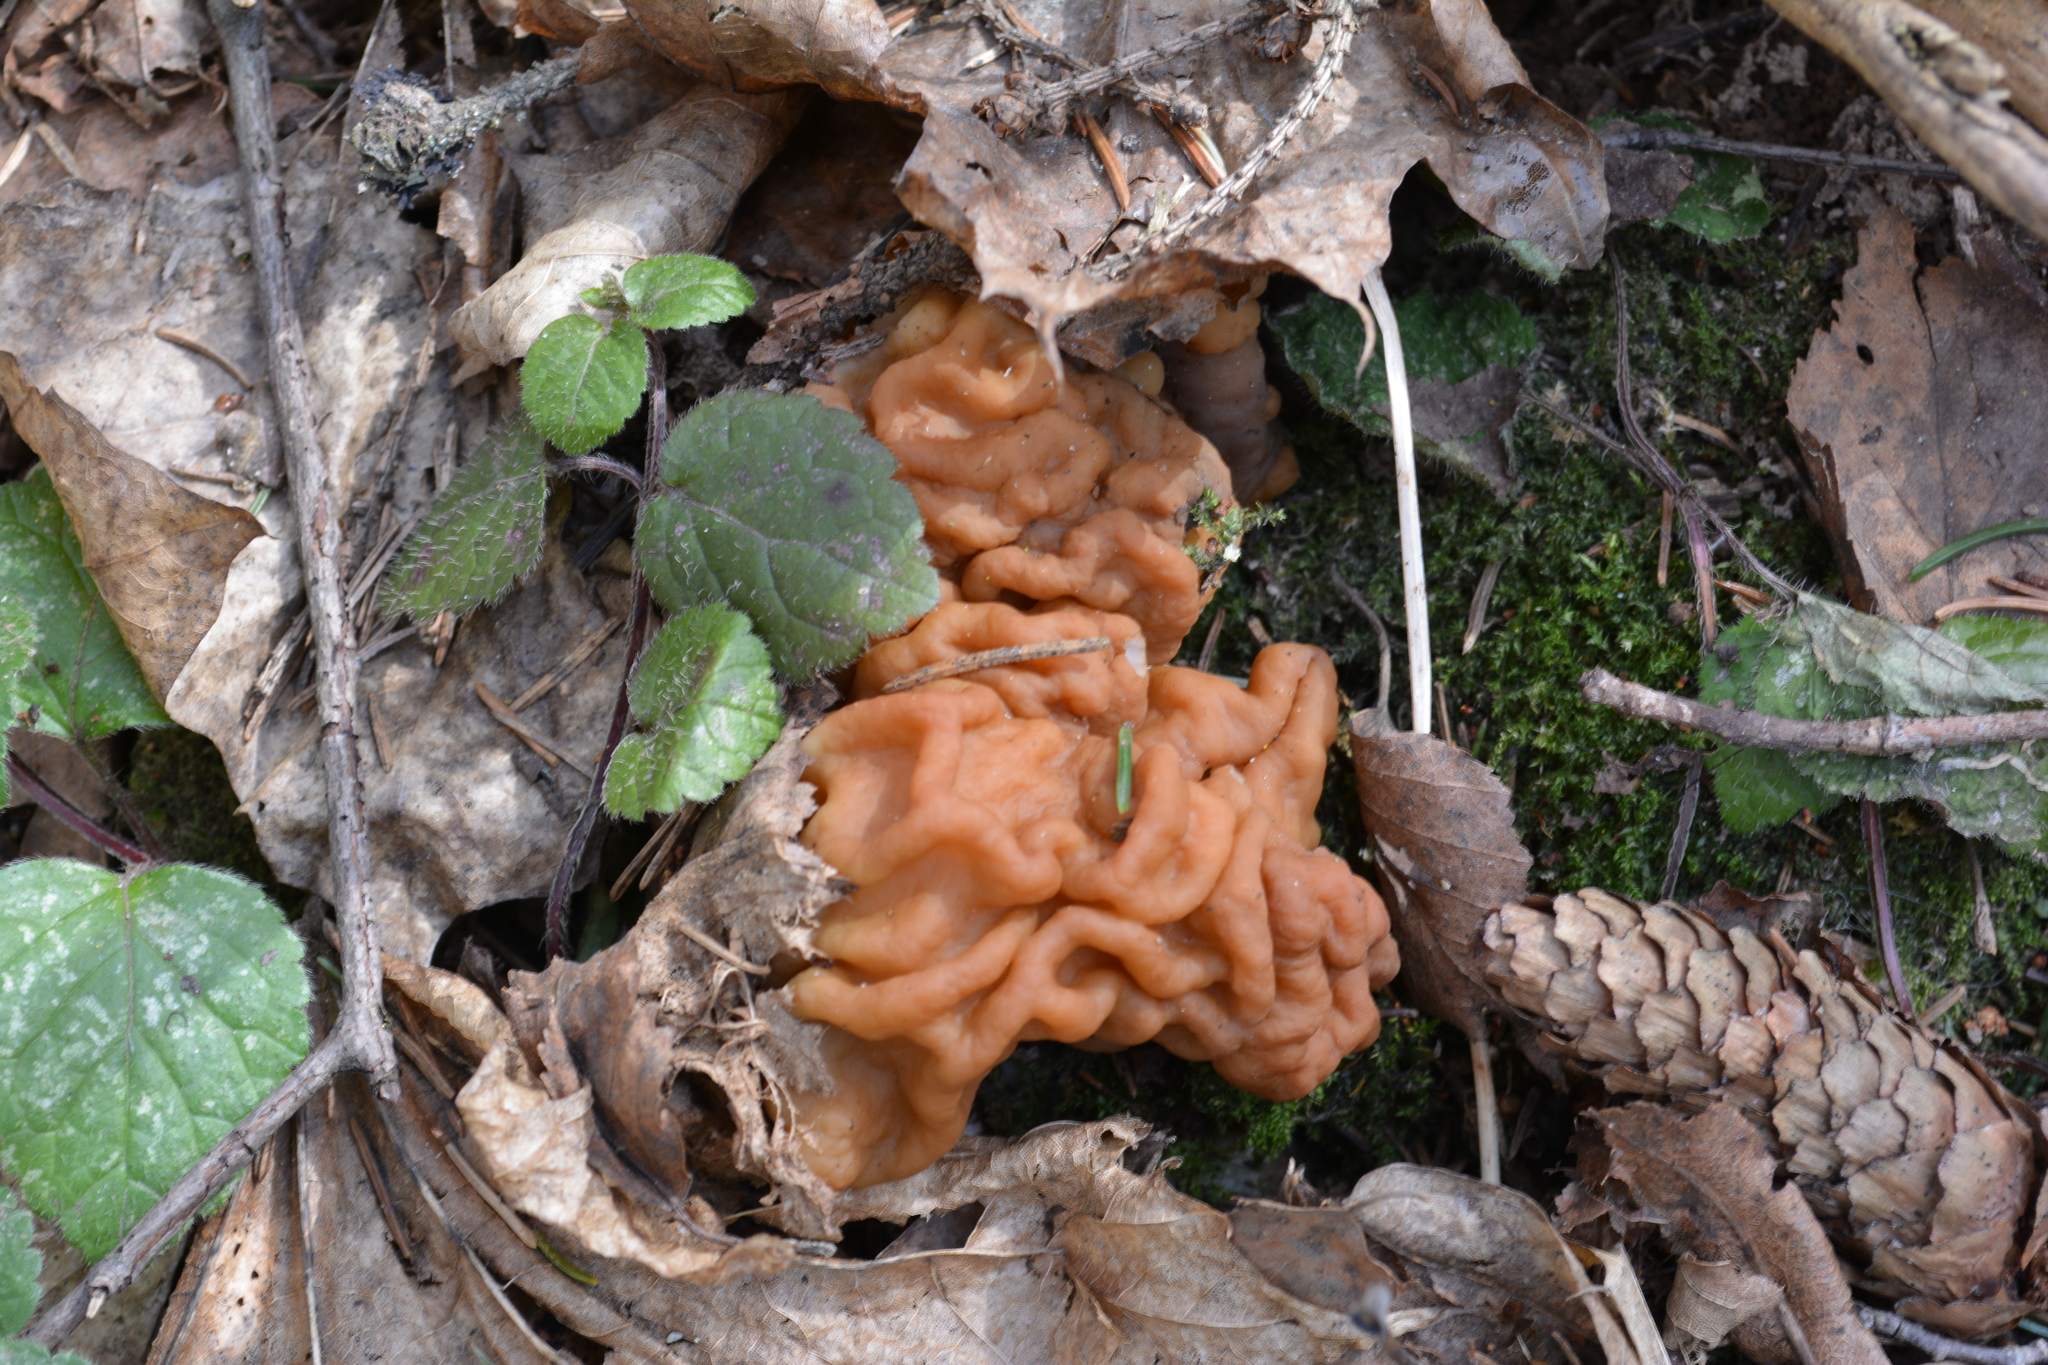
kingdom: Fungi
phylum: Ascomycota
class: Pezizomycetes
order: Pezizales
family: Discinaceae
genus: Gyromitra
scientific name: Gyromitra gigas
